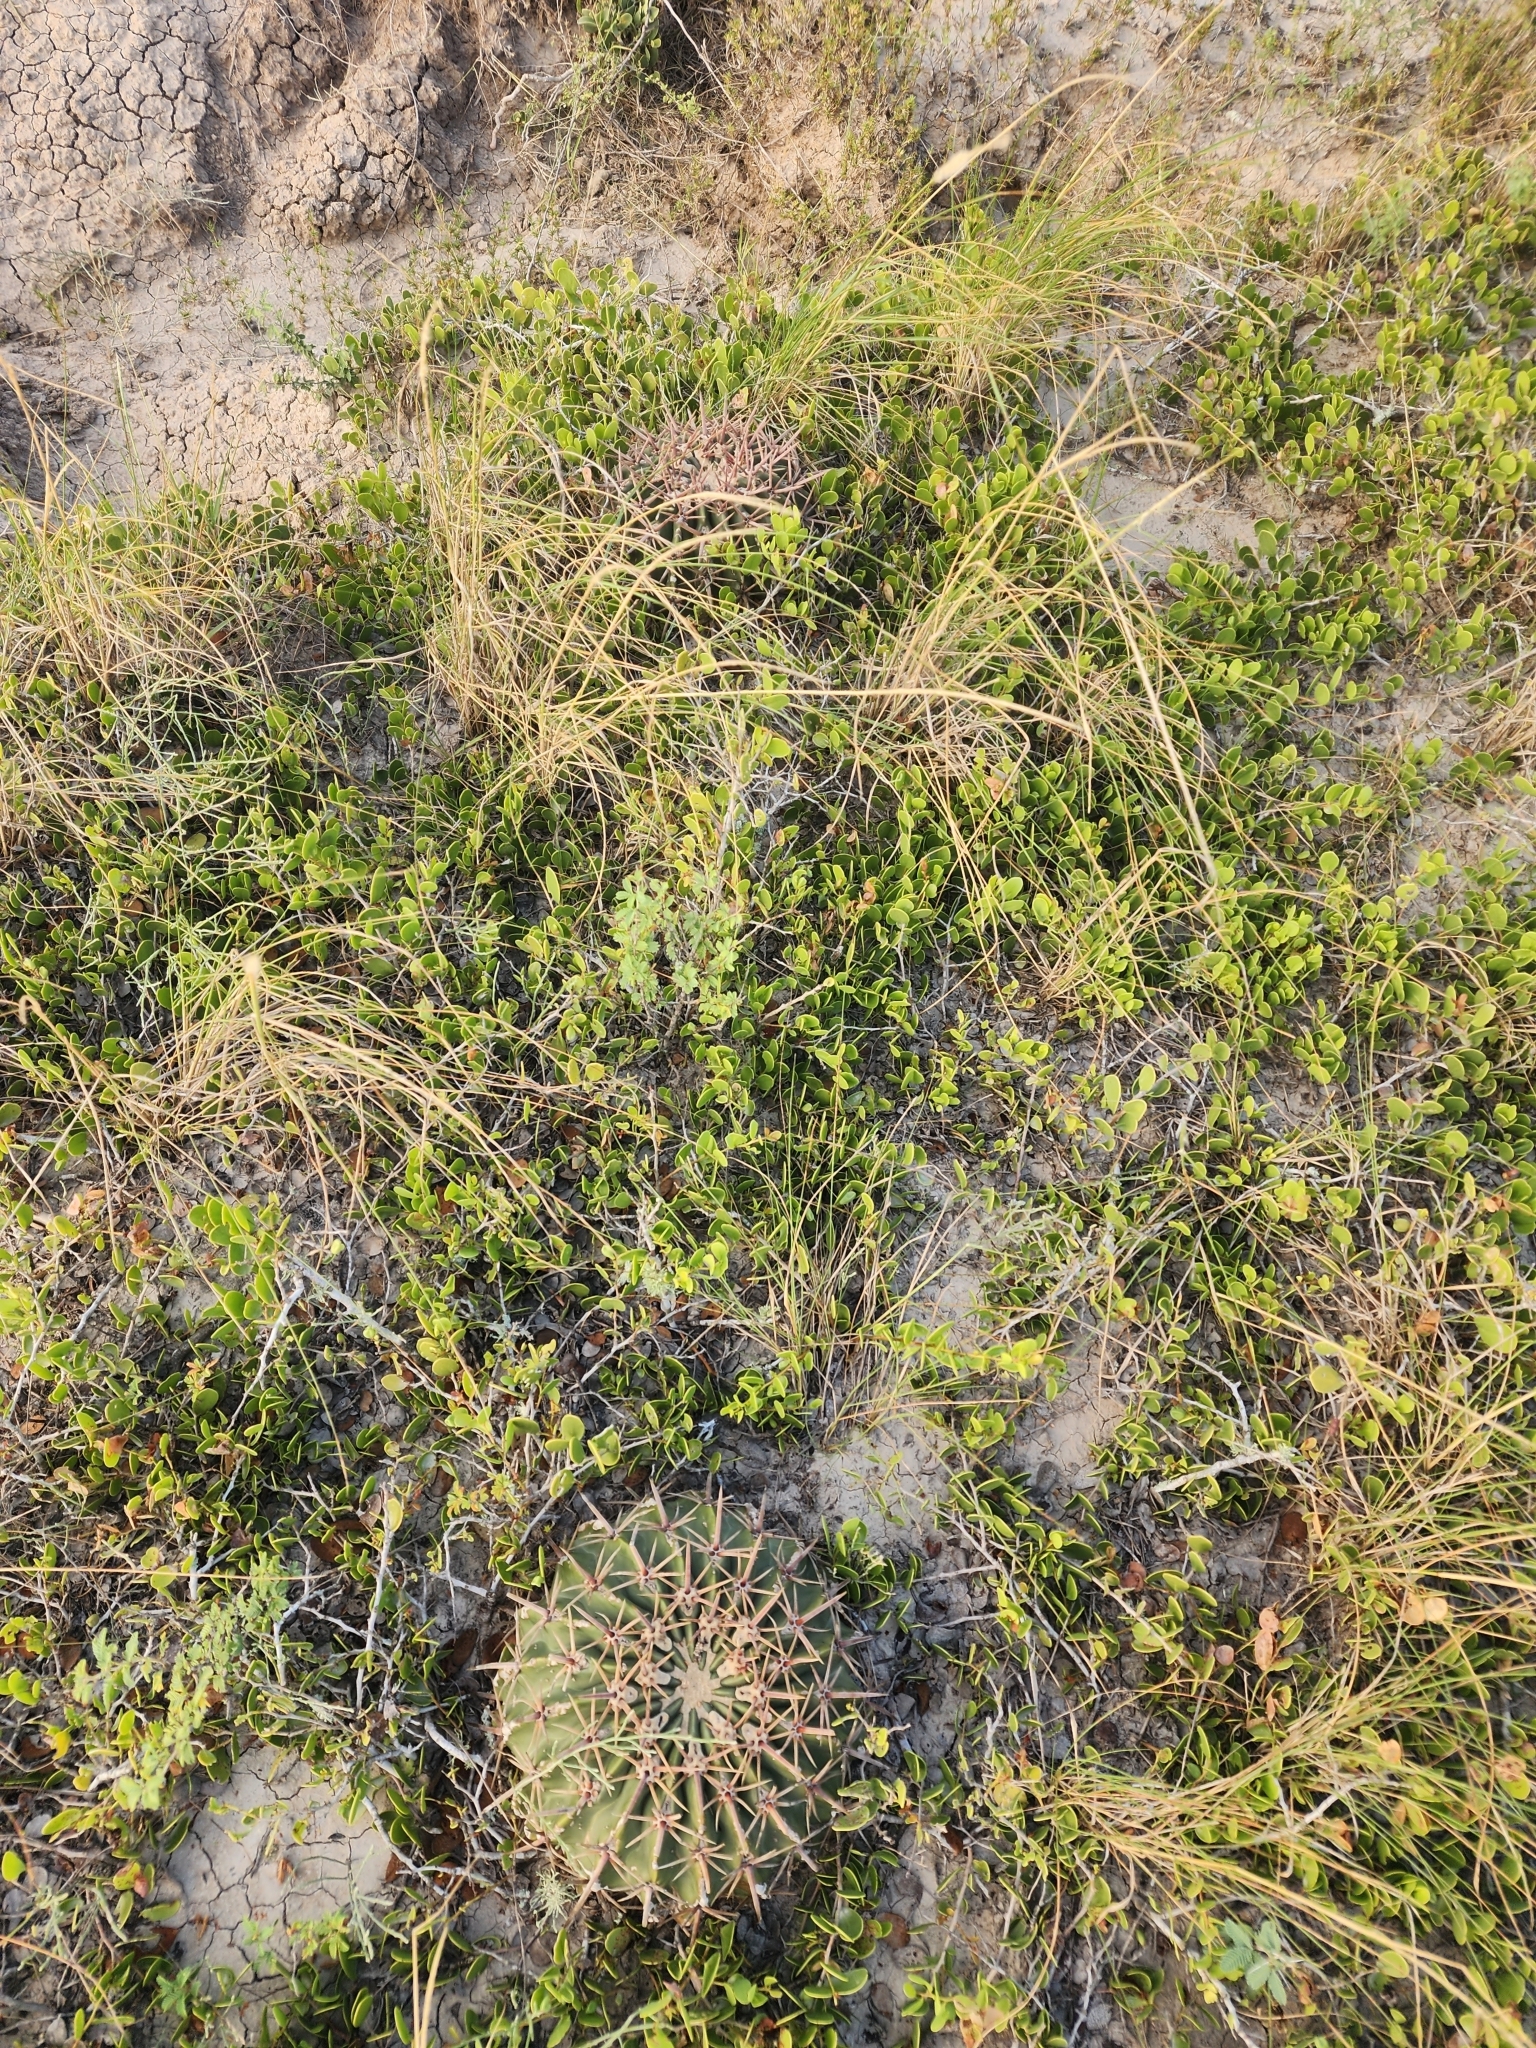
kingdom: Plantae
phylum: Tracheophyta
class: Magnoliopsida
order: Caryophyllales
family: Cactaceae
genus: Echinocactus
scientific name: Echinocactus texensis
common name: Devil's pincushion
